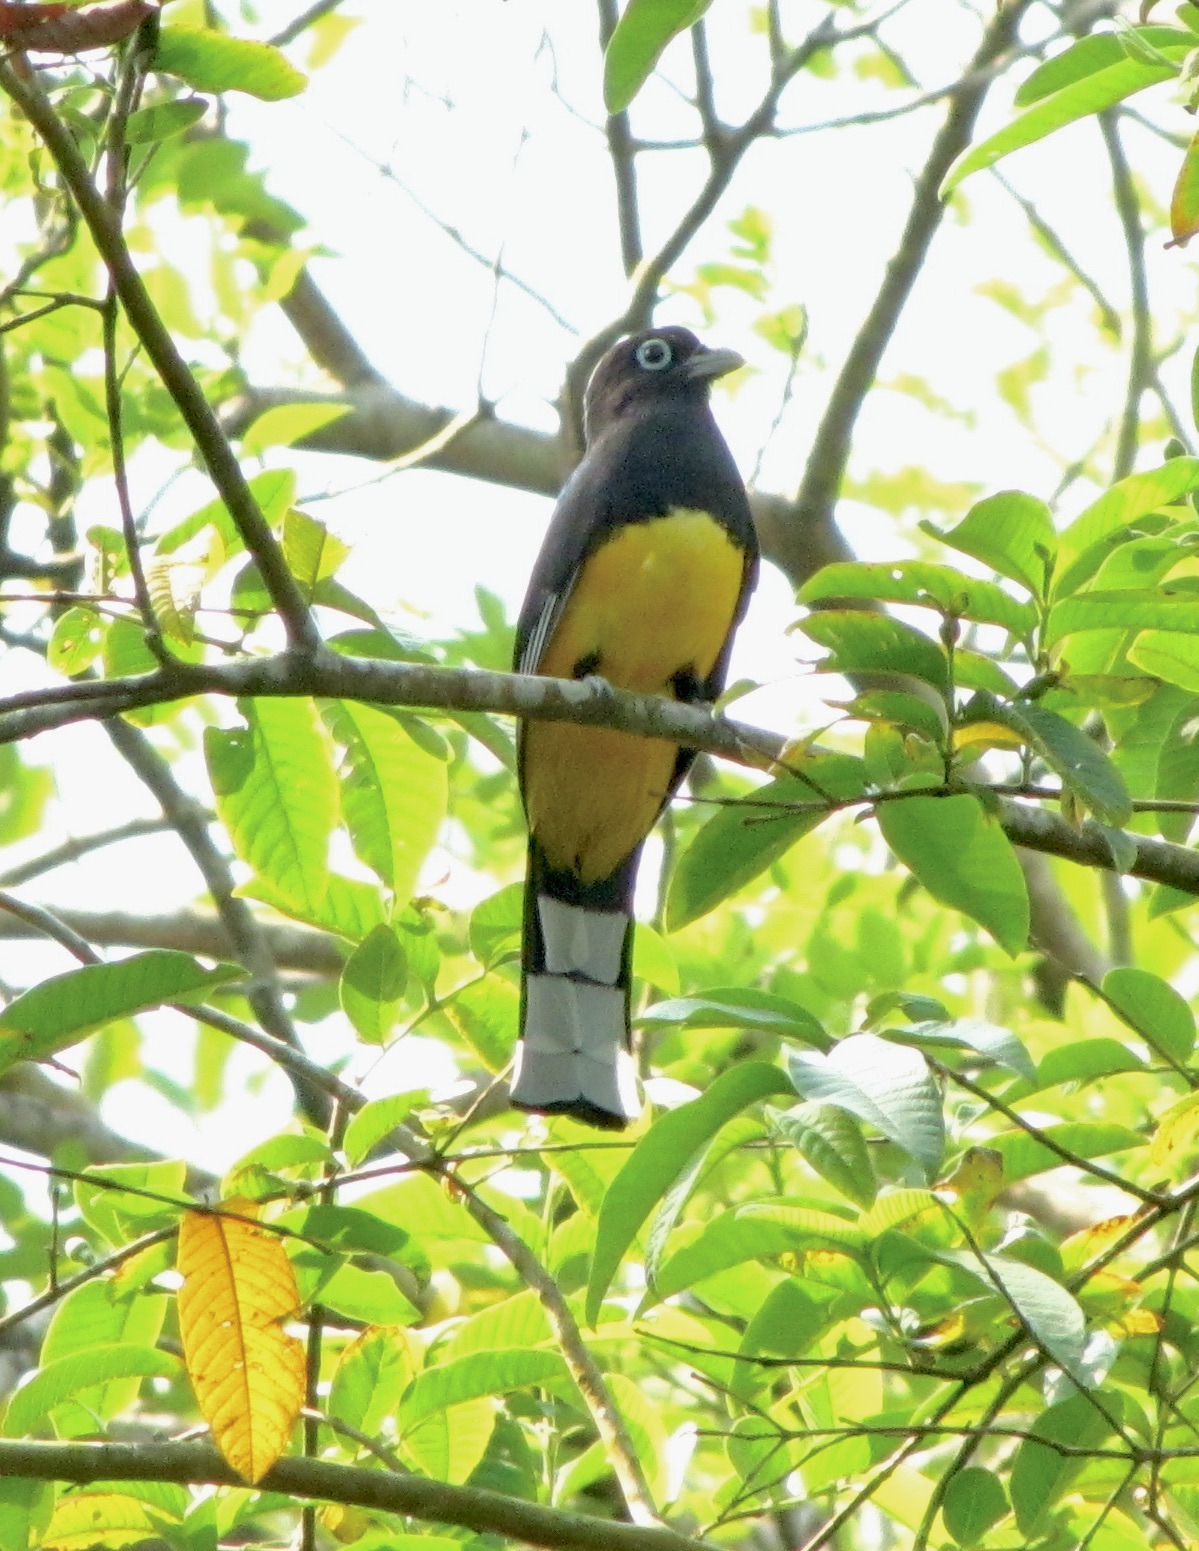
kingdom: Animalia
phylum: Chordata
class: Aves
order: Trogoniformes
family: Trogonidae
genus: Trogon
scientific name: Trogon melanocephalus
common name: Black-headed trogon
